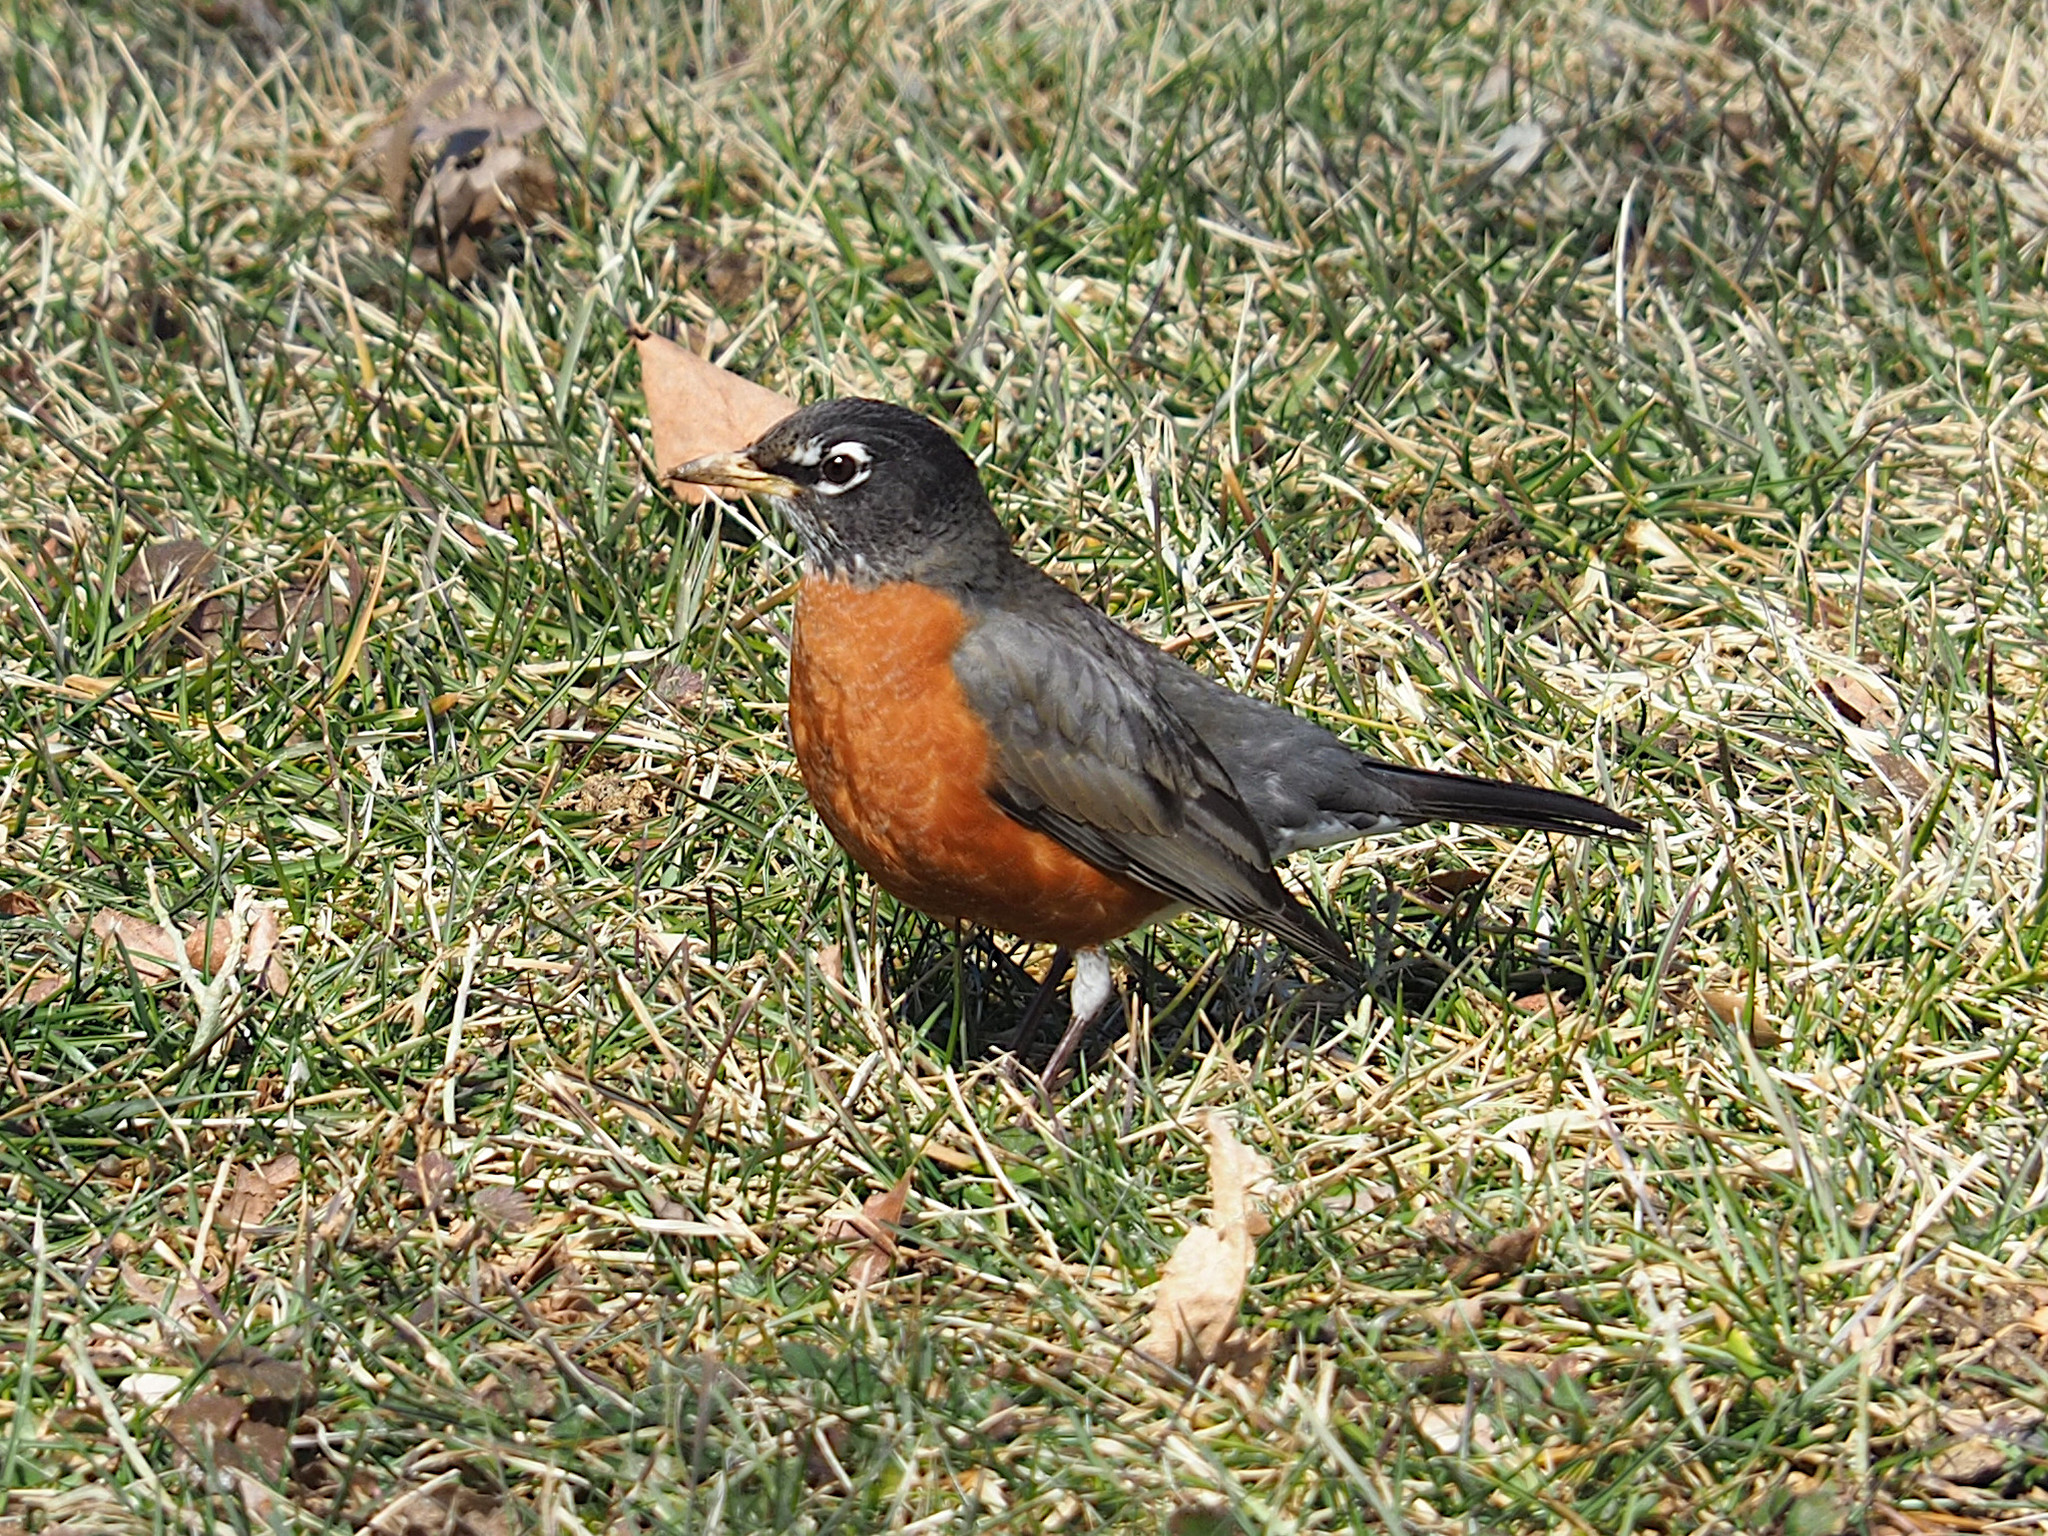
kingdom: Animalia
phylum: Chordata
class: Aves
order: Passeriformes
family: Turdidae
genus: Turdus
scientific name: Turdus migratorius
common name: American robin
